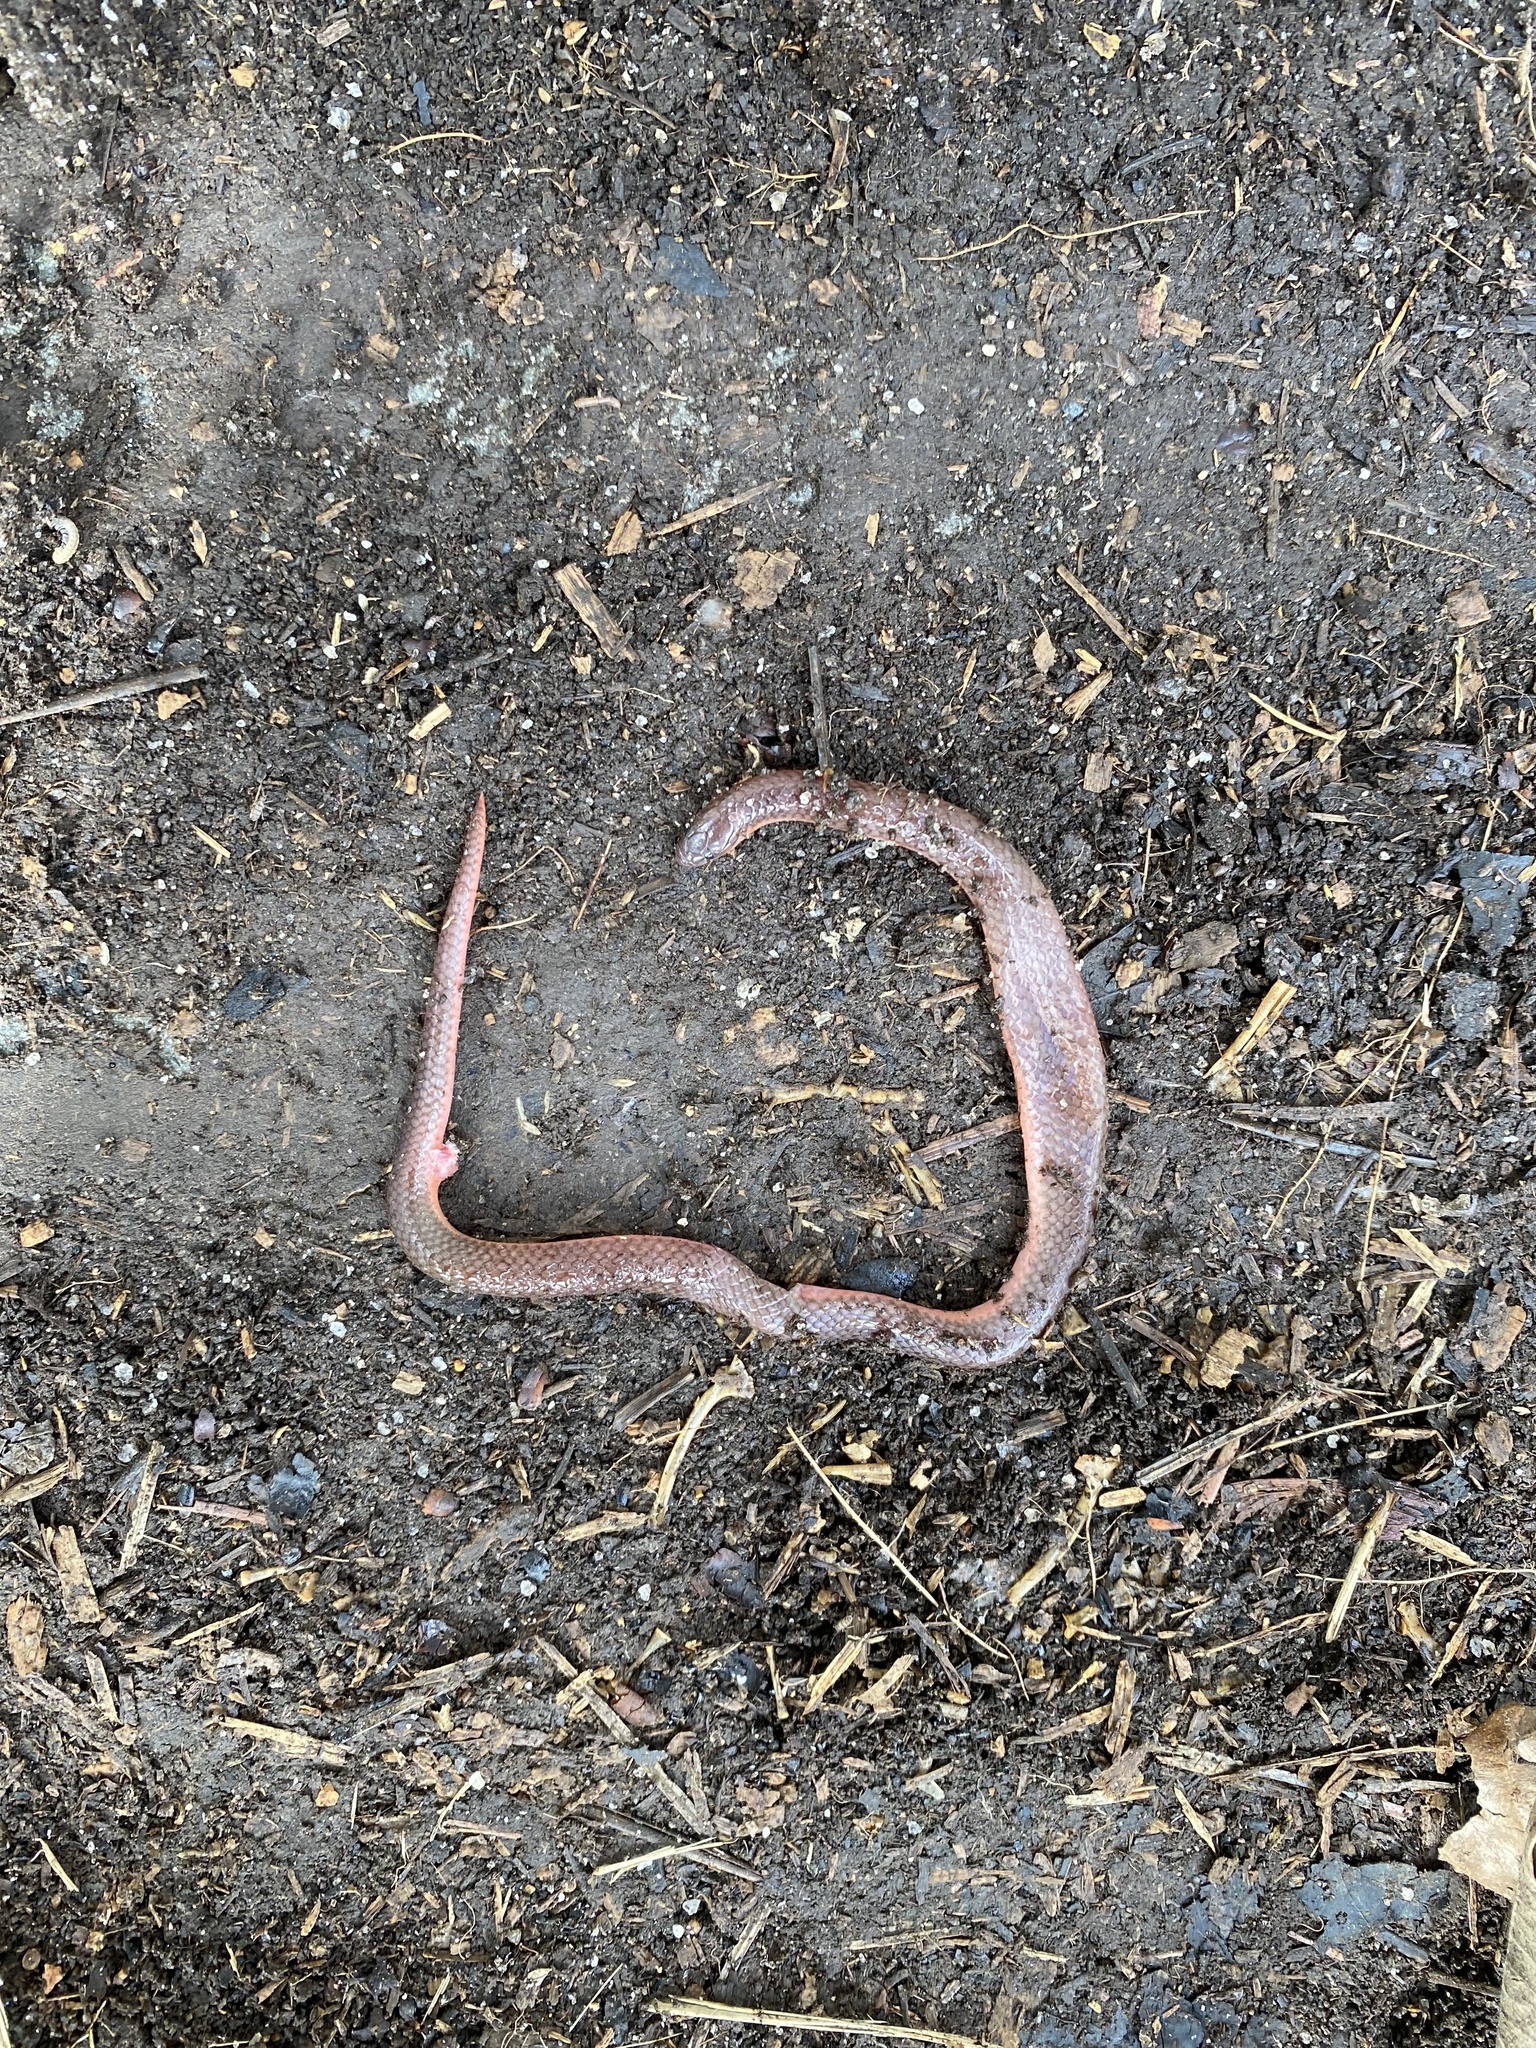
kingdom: Animalia
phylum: Chordata
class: Squamata
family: Colubridae
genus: Carphophis
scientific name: Carphophis amoenus
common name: Eastern worm snake
